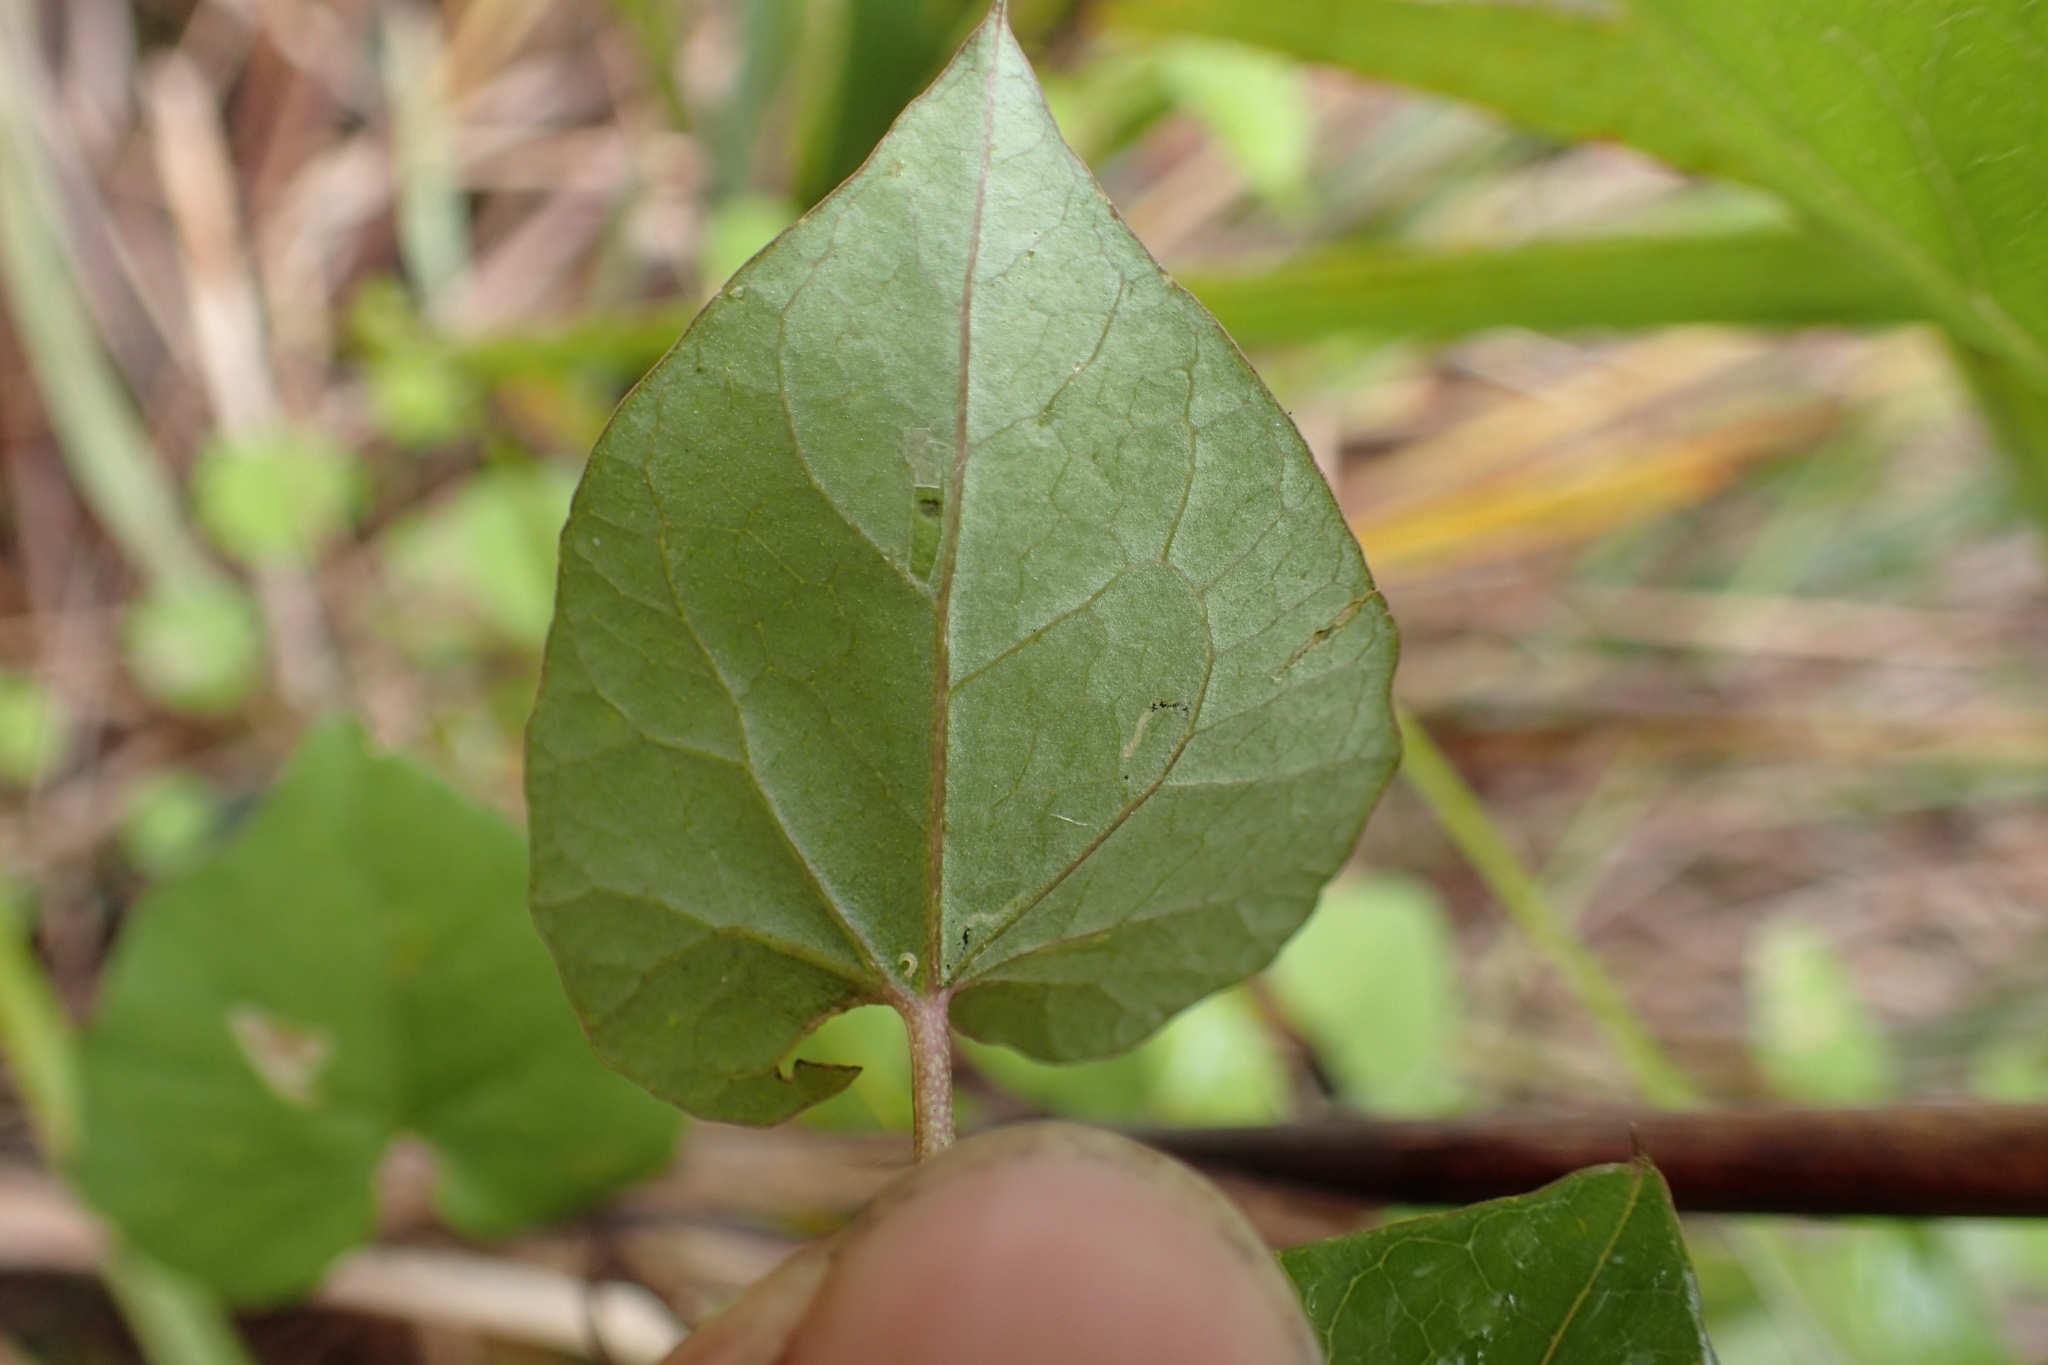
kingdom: Plantae
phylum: Tracheophyta
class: Magnoliopsida
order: Solanales
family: Convolvulaceae
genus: Calystegia
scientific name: Calystegia tuguriorum
